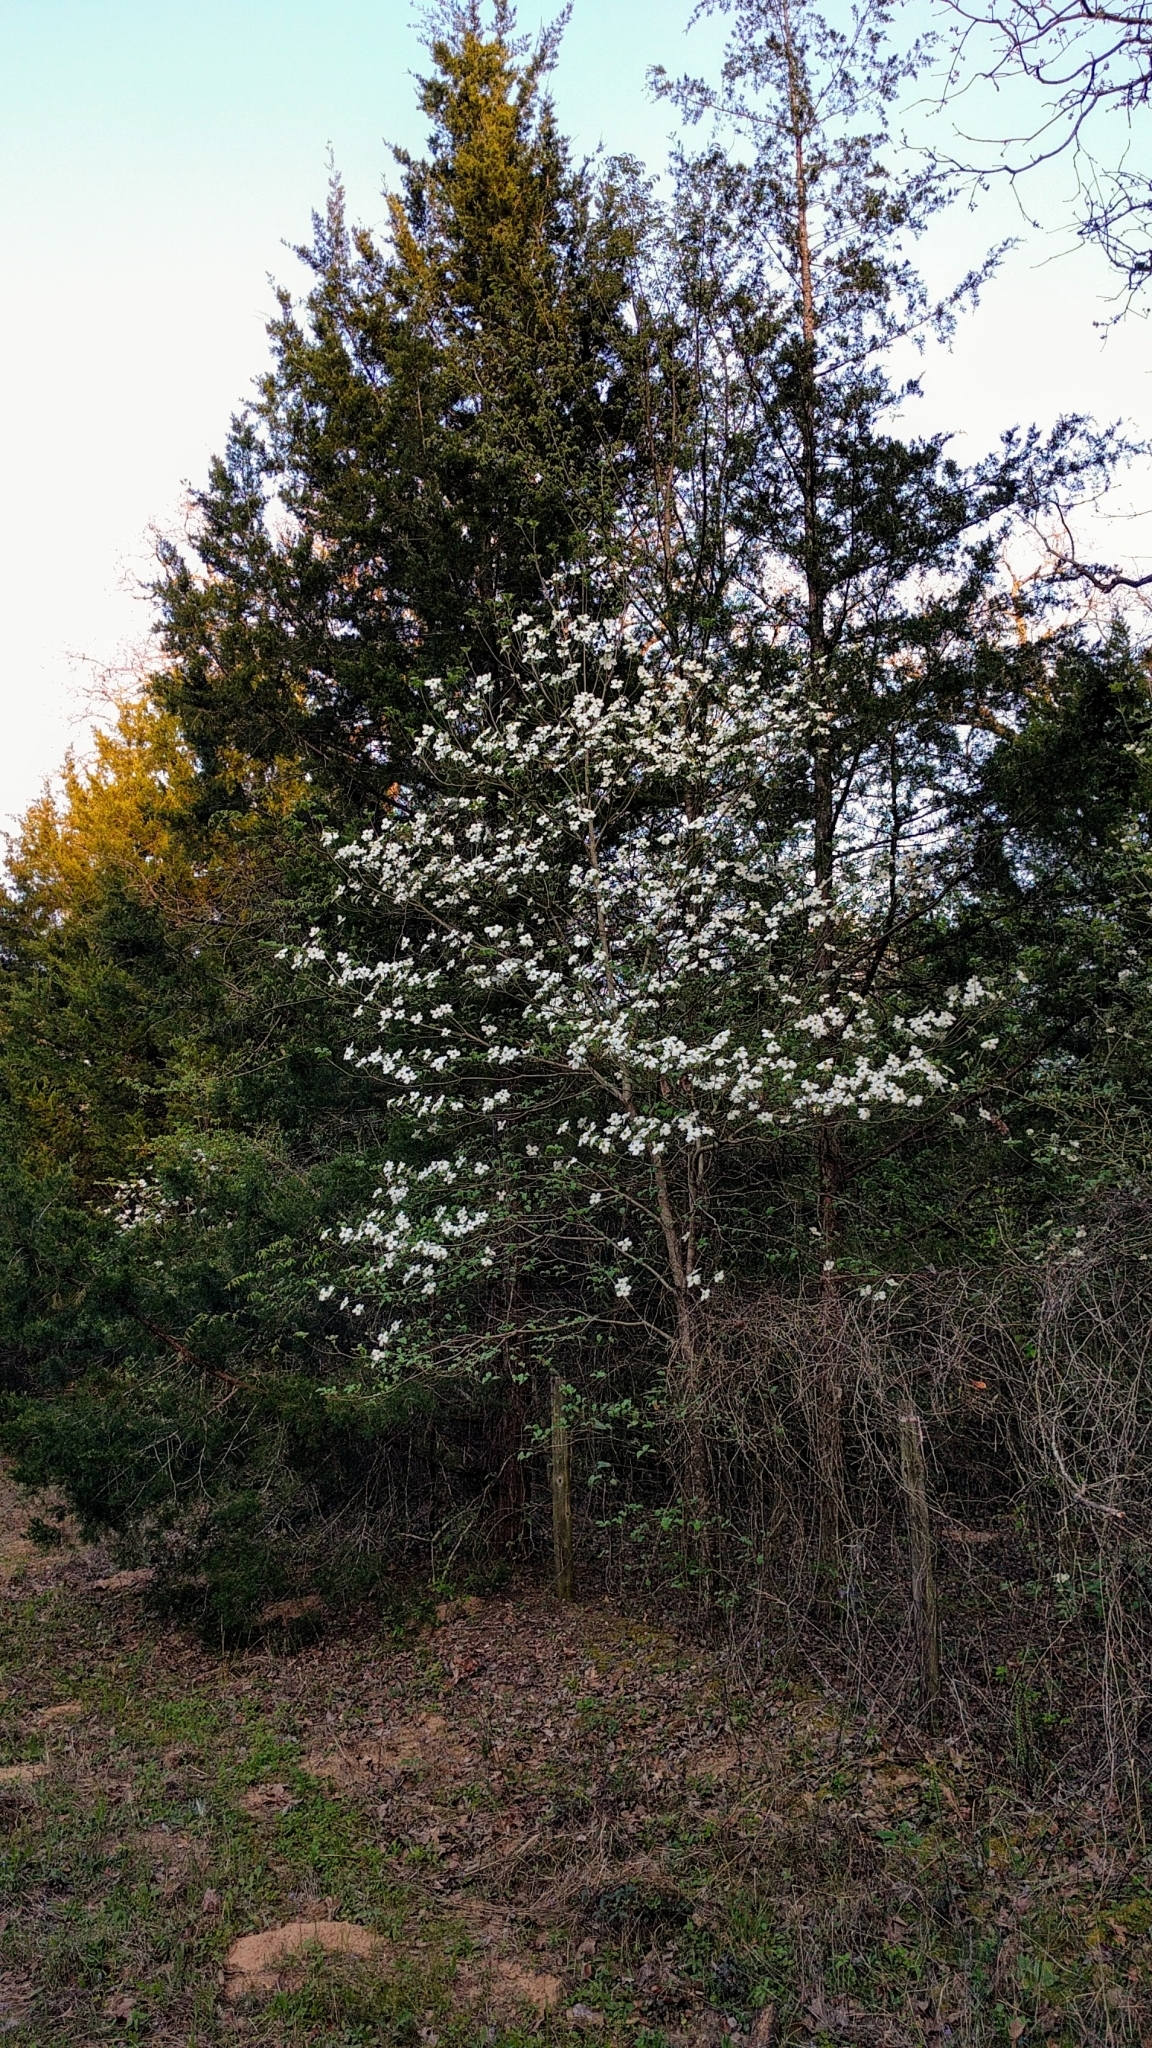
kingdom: Plantae
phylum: Tracheophyta
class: Magnoliopsida
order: Cornales
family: Cornaceae
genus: Cornus
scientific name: Cornus florida
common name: Flowering dogwood
